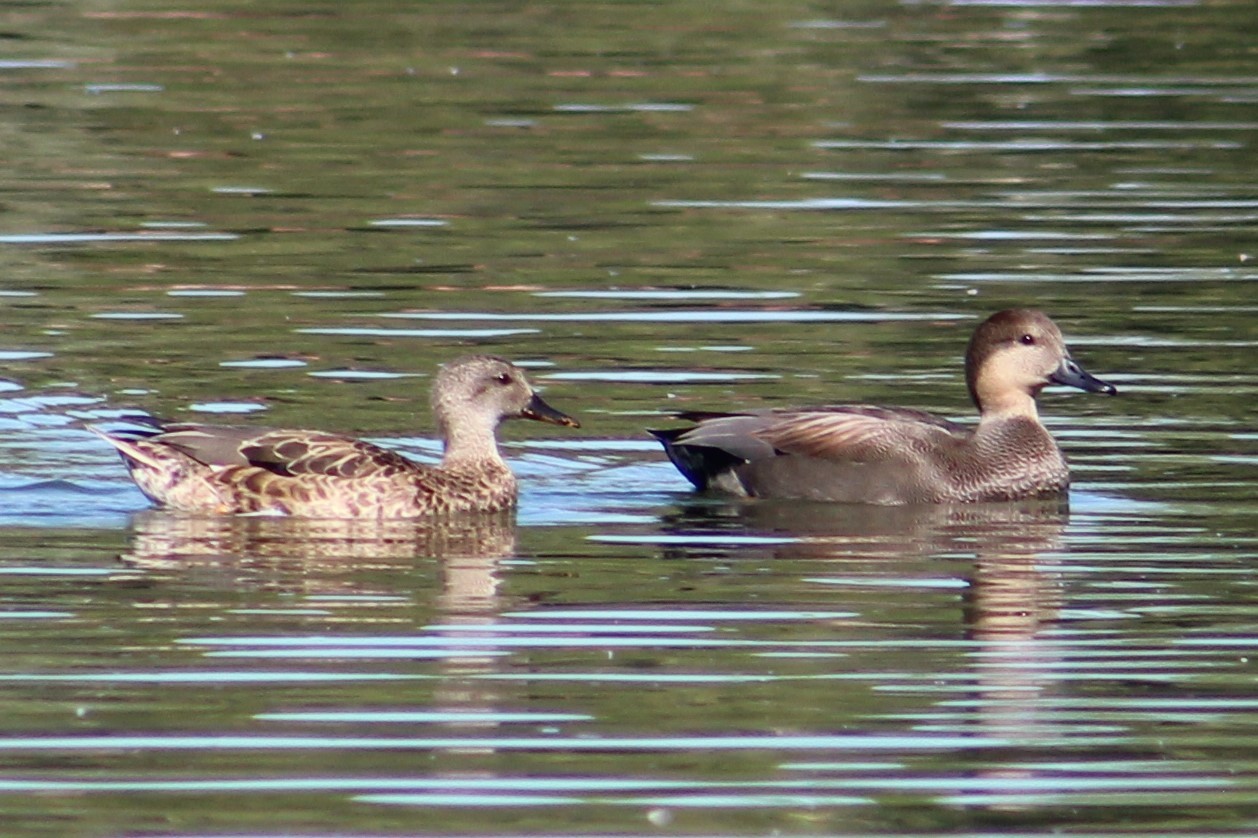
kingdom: Animalia
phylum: Chordata
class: Aves
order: Anseriformes
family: Anatidae
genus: Mareca
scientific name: Mareca strepera
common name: Gadwall
